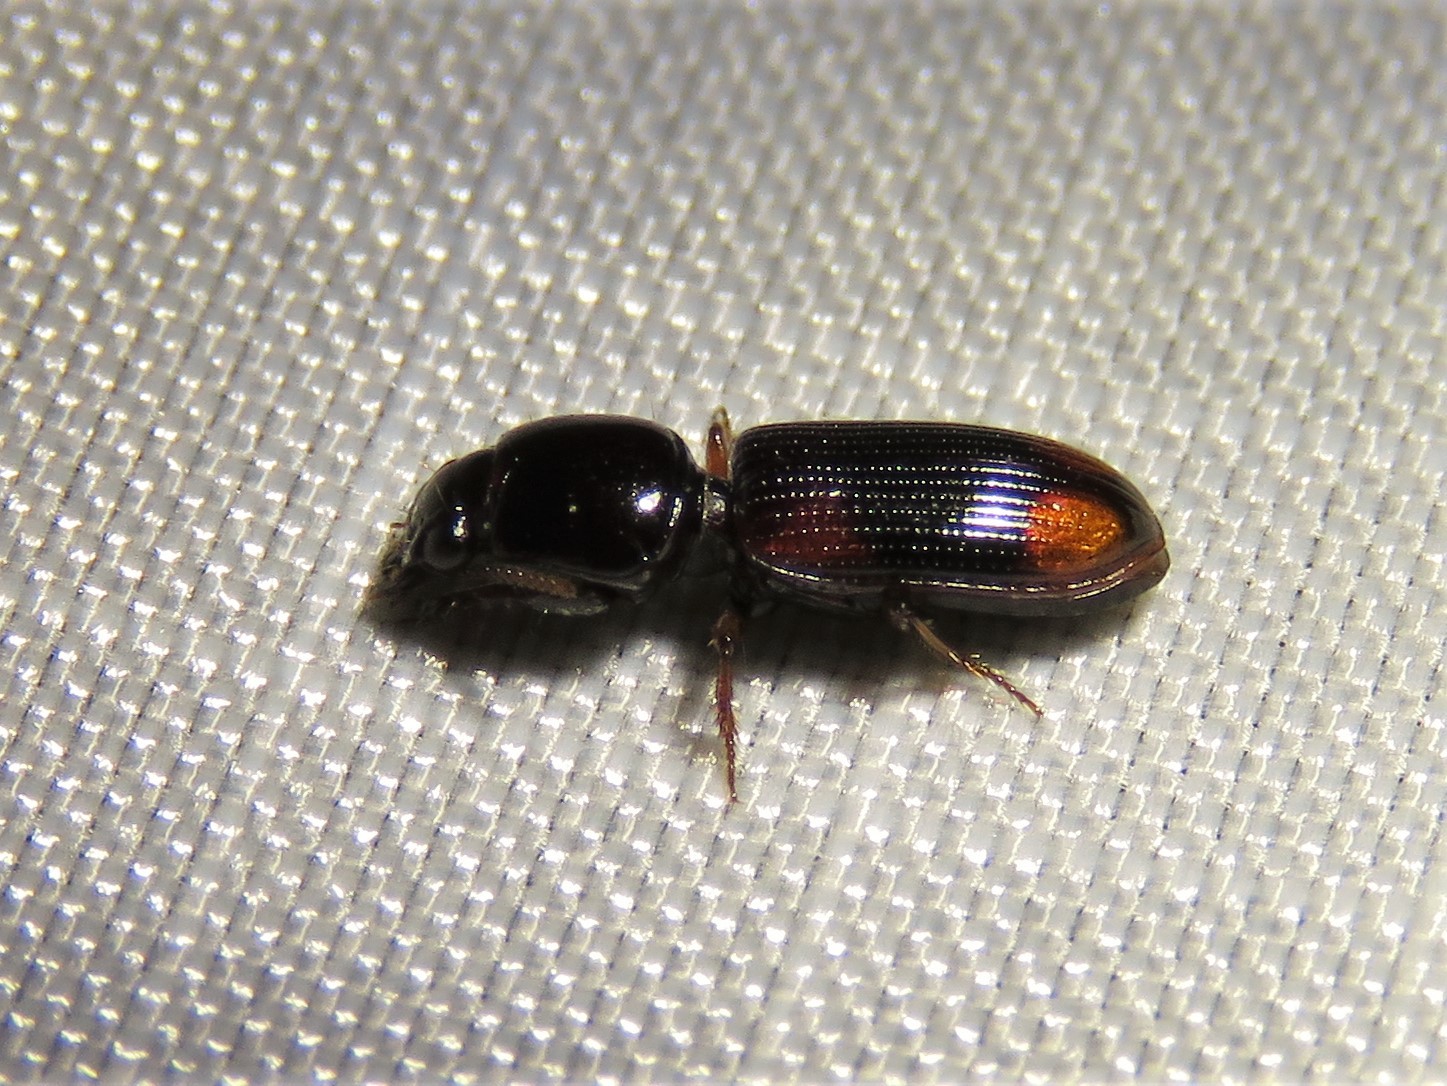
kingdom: Animalia
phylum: Arthropoda
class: Insecta
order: Coleoptera
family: Carabidae
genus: Aspidoglossa
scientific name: Aspidoglossa subangulata
